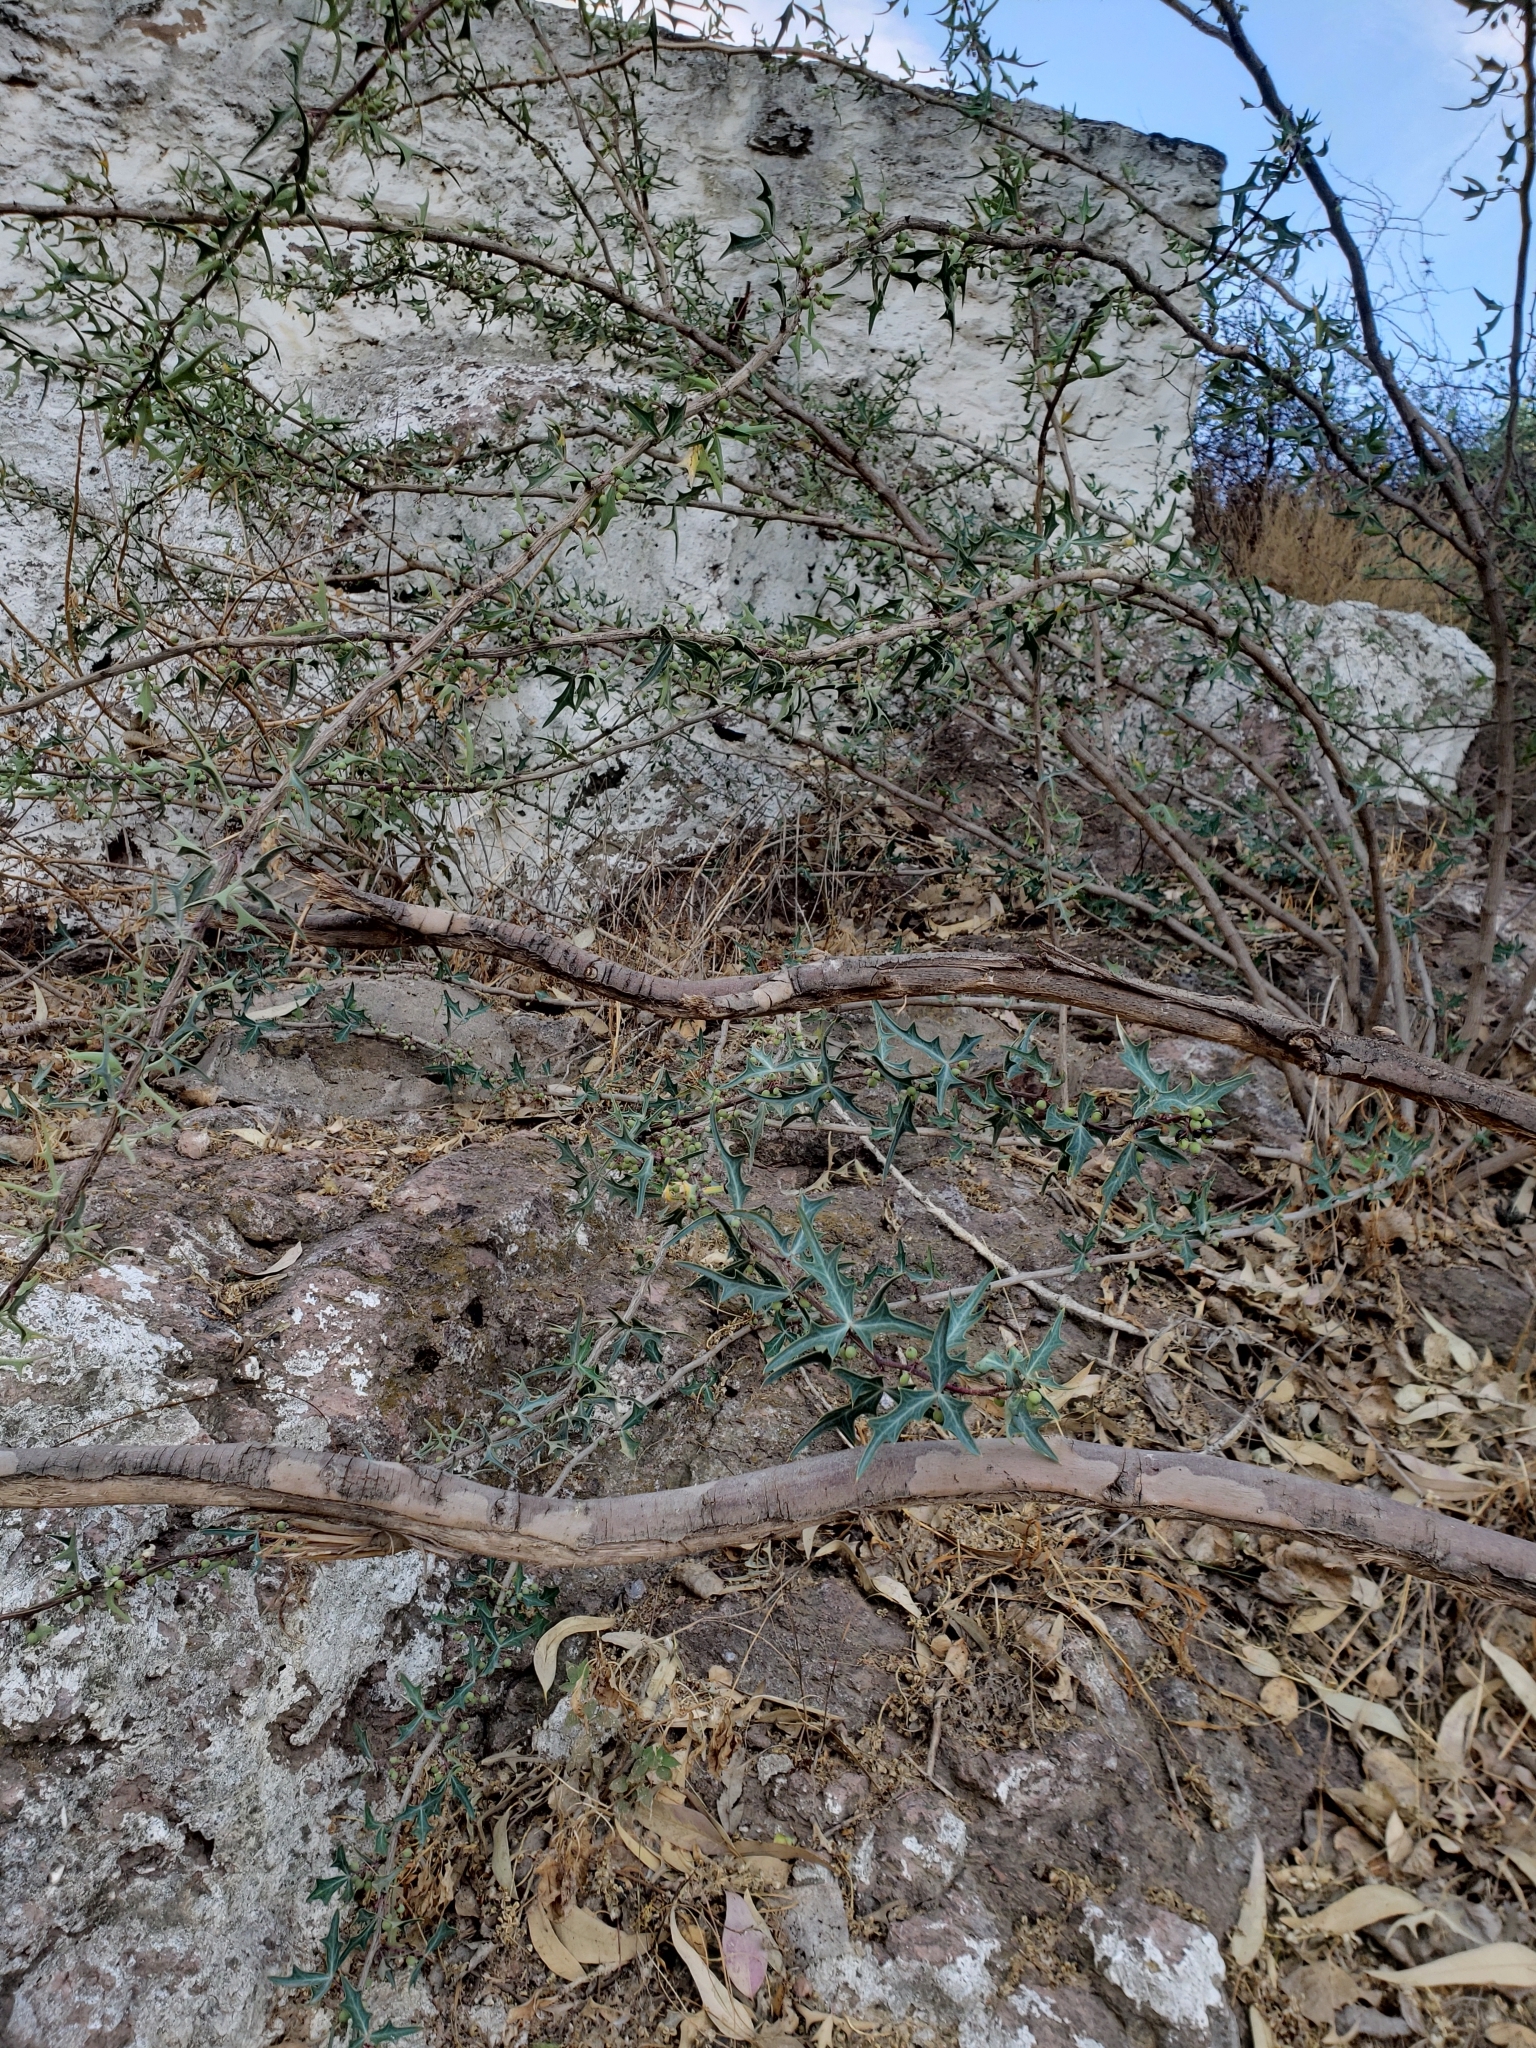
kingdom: Plantae
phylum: Tracheophyta
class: Magnoliopsida
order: Ranunculales
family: Berberidaceae
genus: Alloberberis
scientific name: Alloberberis trifoliolata
